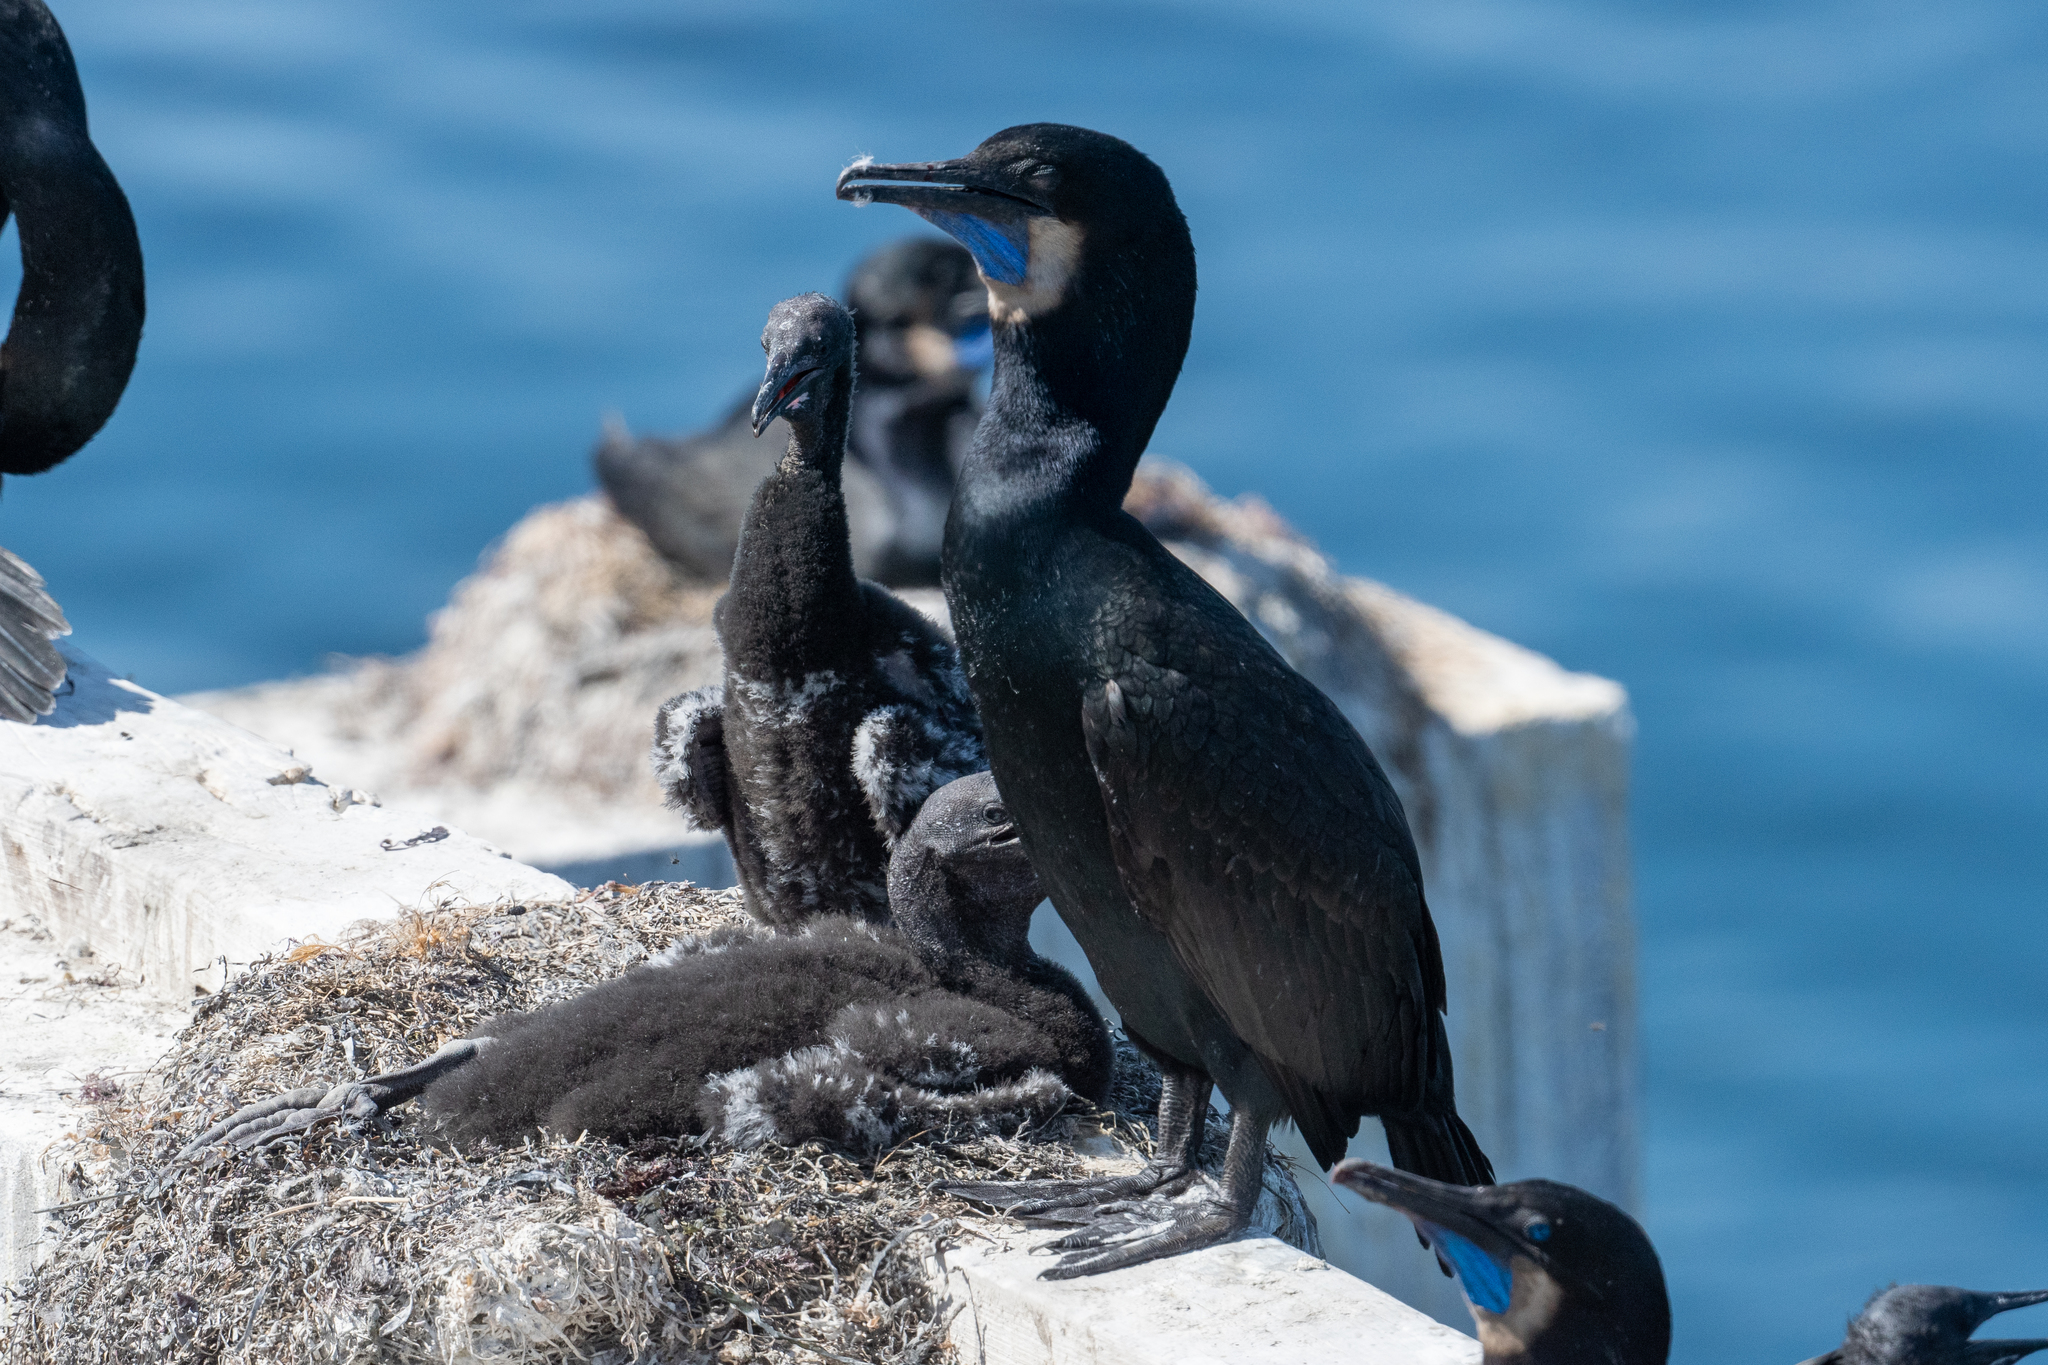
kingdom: Animalia
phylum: Chordata
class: Aves
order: Suliformes
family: Phalacrocoracidae
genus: Urile
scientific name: Urile penicillatus
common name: Brandt's cormorant
